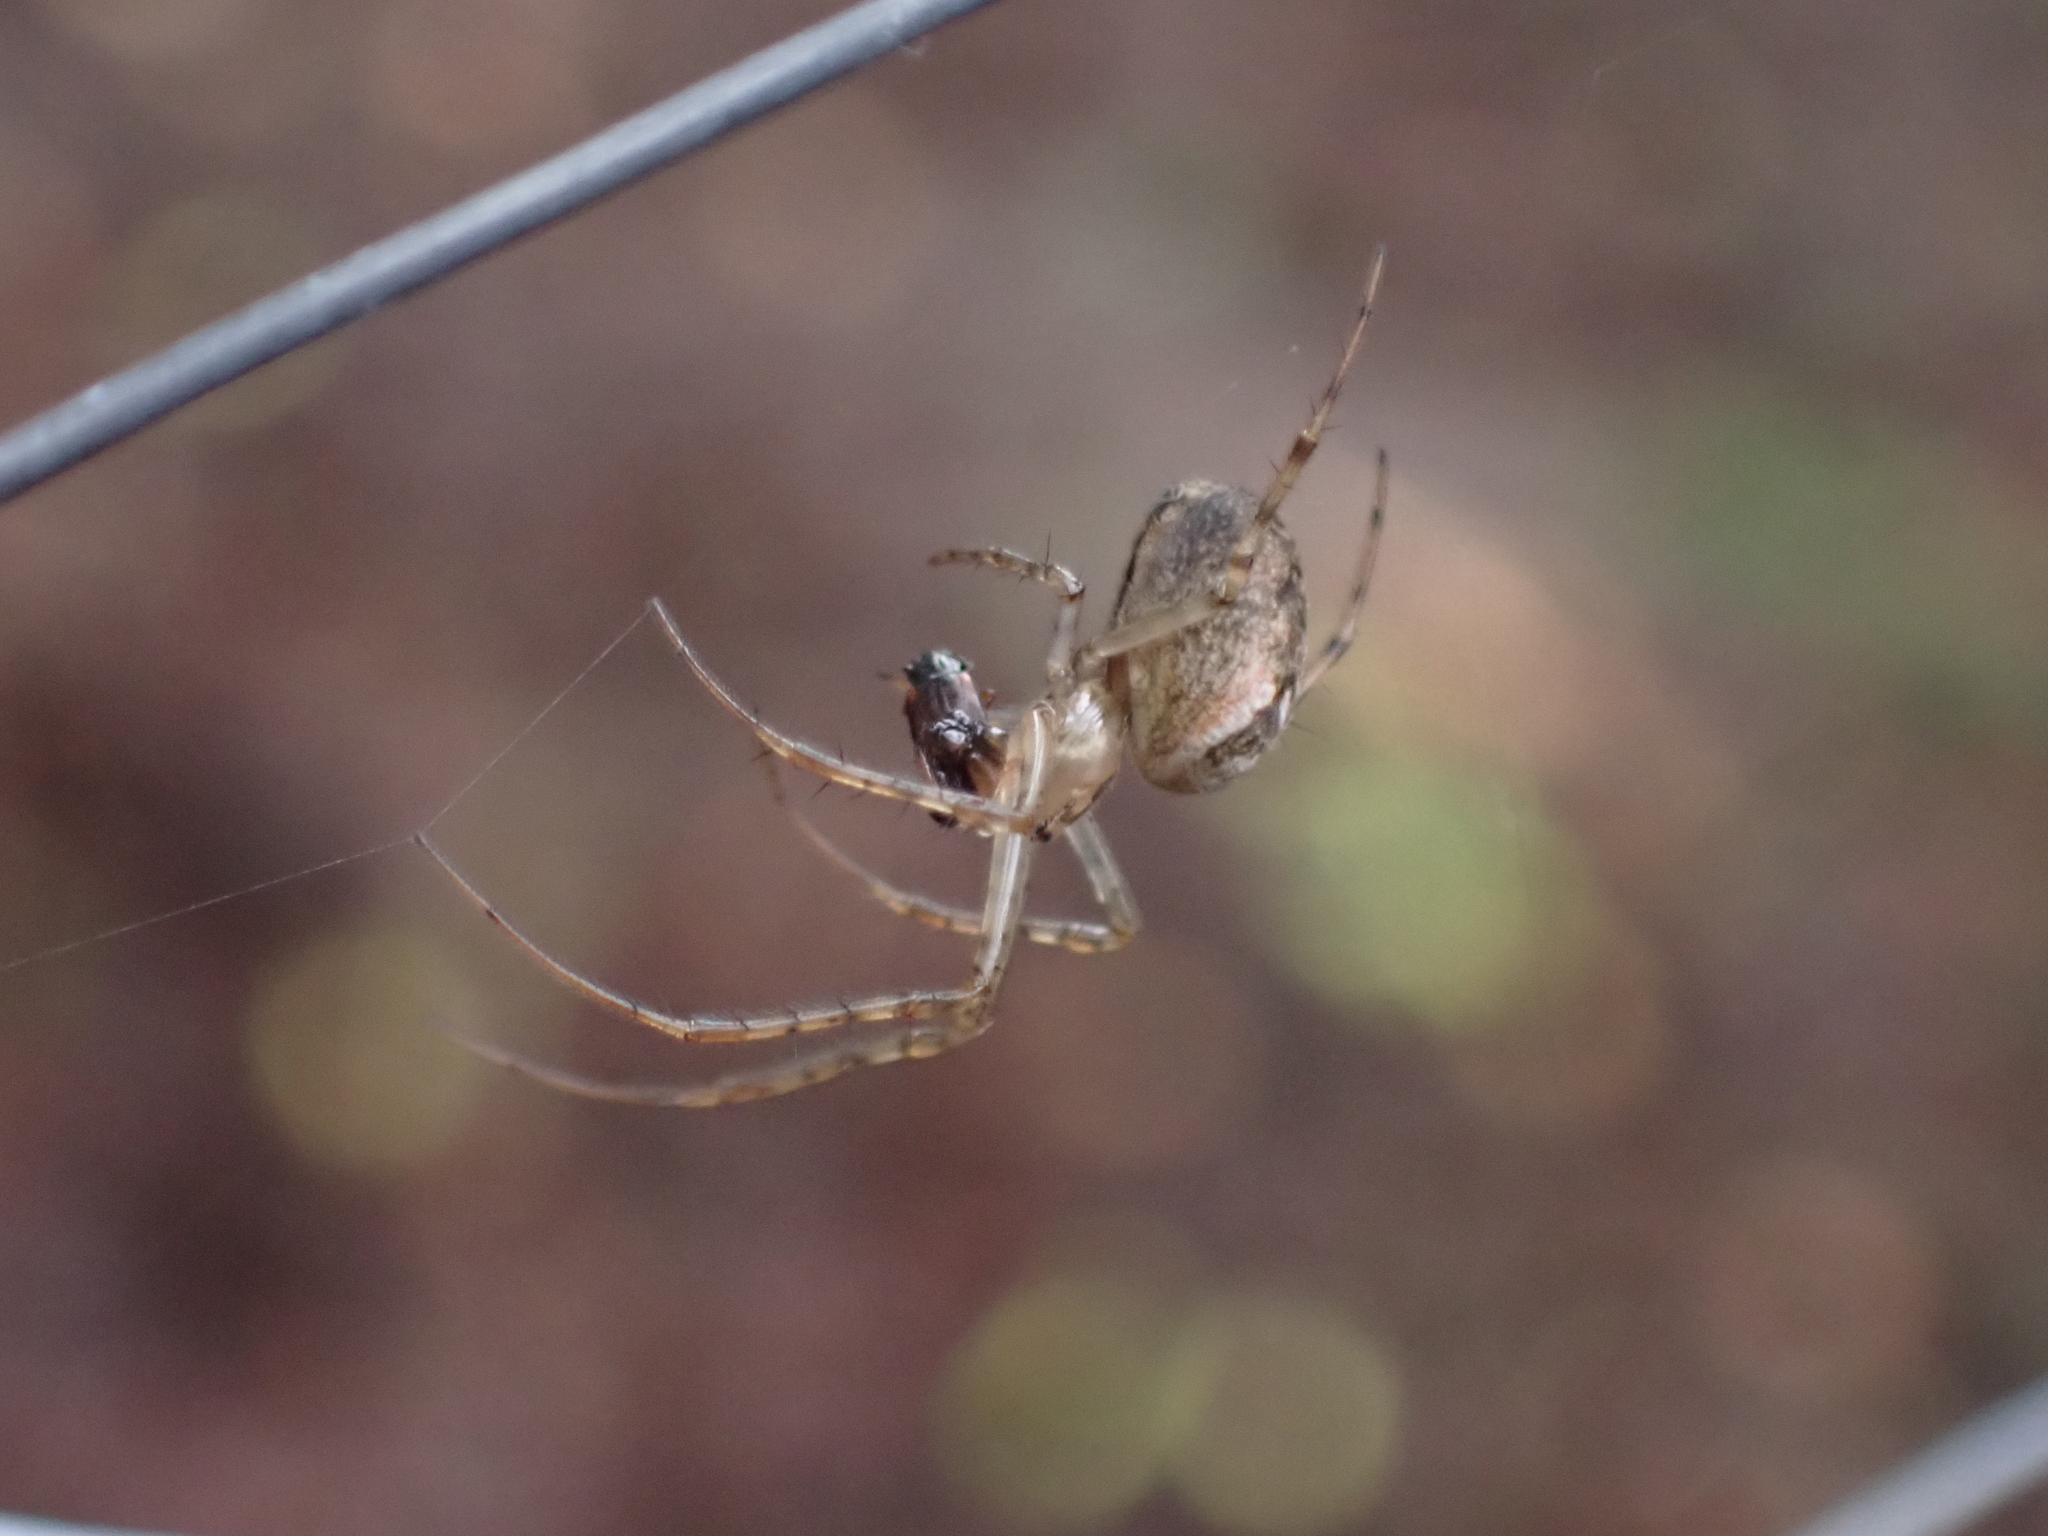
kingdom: Animalia
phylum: Arthropoda
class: Arachnida
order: Araneae
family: Tetragnathidae
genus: Metellina
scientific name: Metellina
